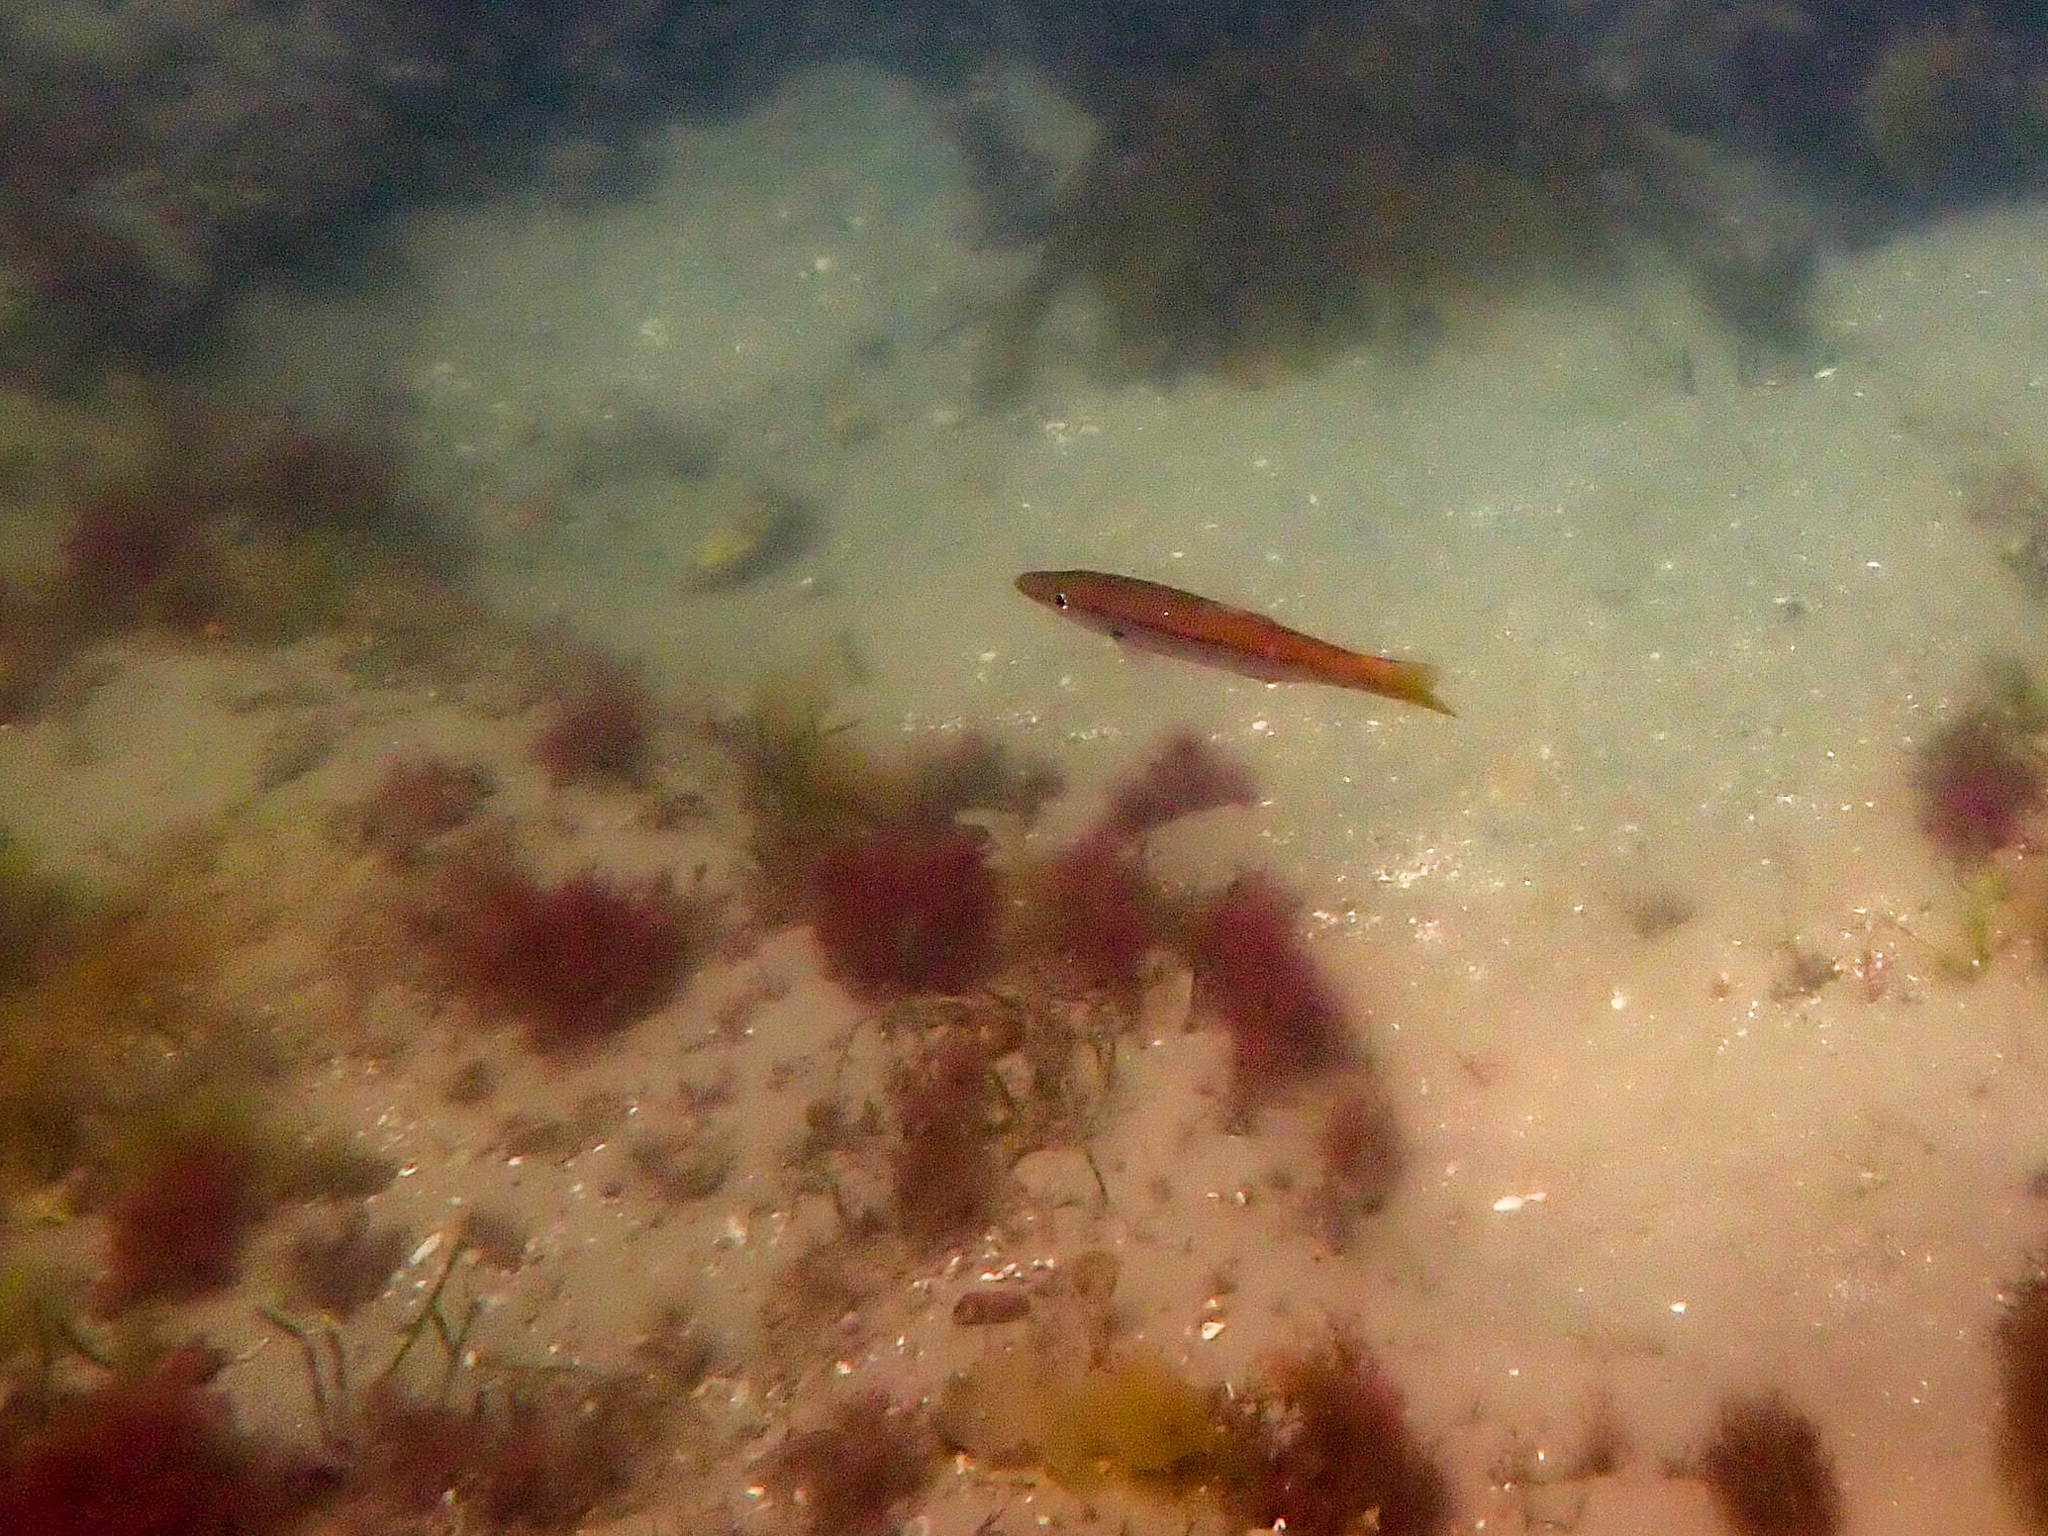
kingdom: Animalia
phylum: Chordata
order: Perciformes
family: Dinolestidae
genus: Dinolestes
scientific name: Dinolestes lewini
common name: Jack pike
